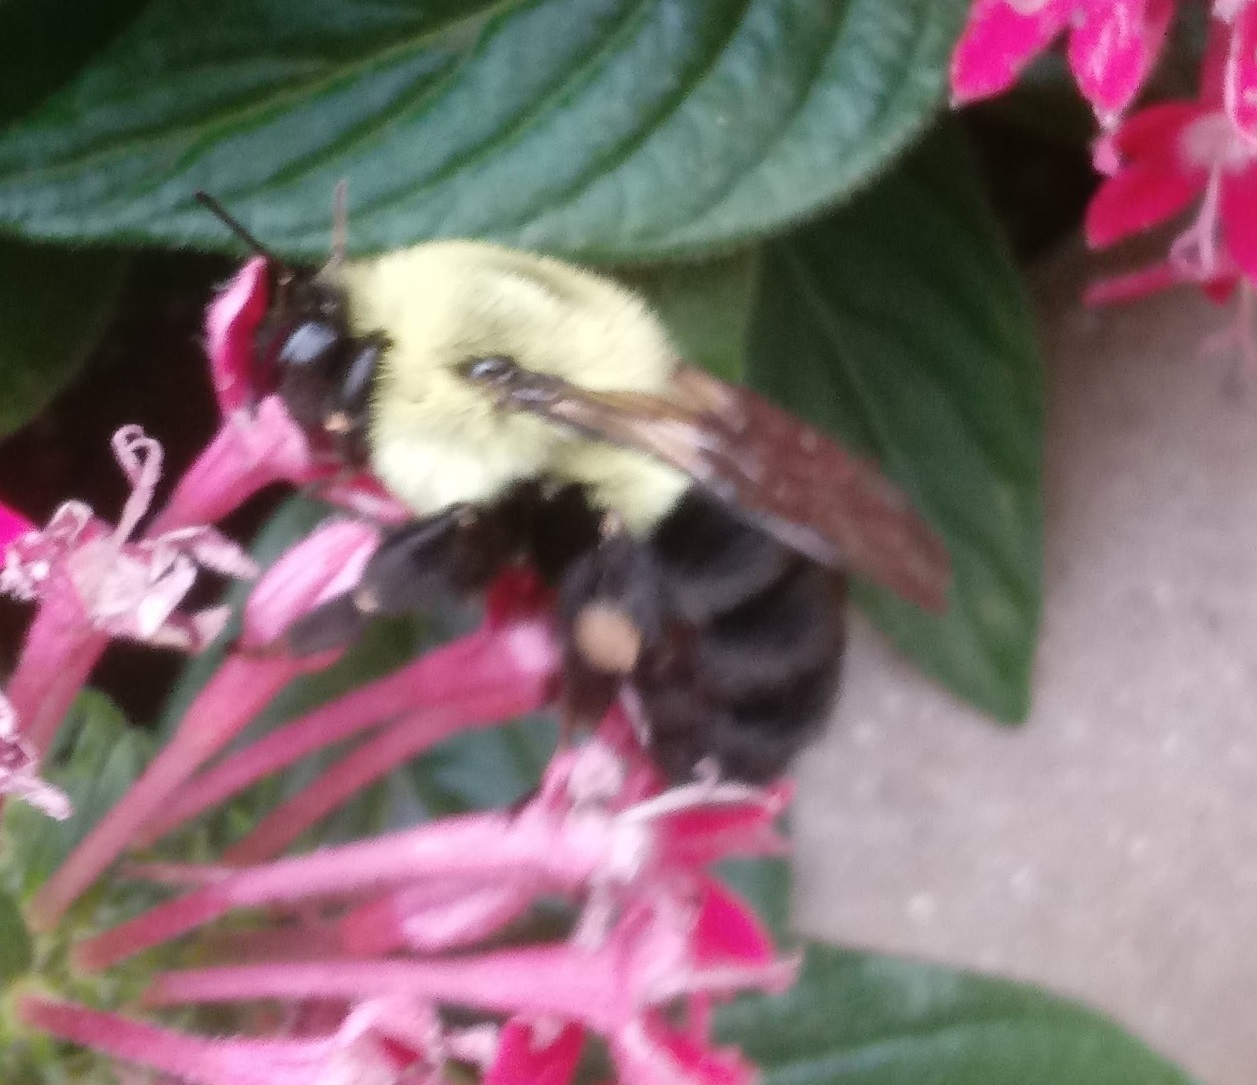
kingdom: Animalia
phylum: Arthropoda
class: Insecta
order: Hymenoptera
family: Apidae
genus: Bombus
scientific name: Bombus impatiens
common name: Common eastern bumble bee
